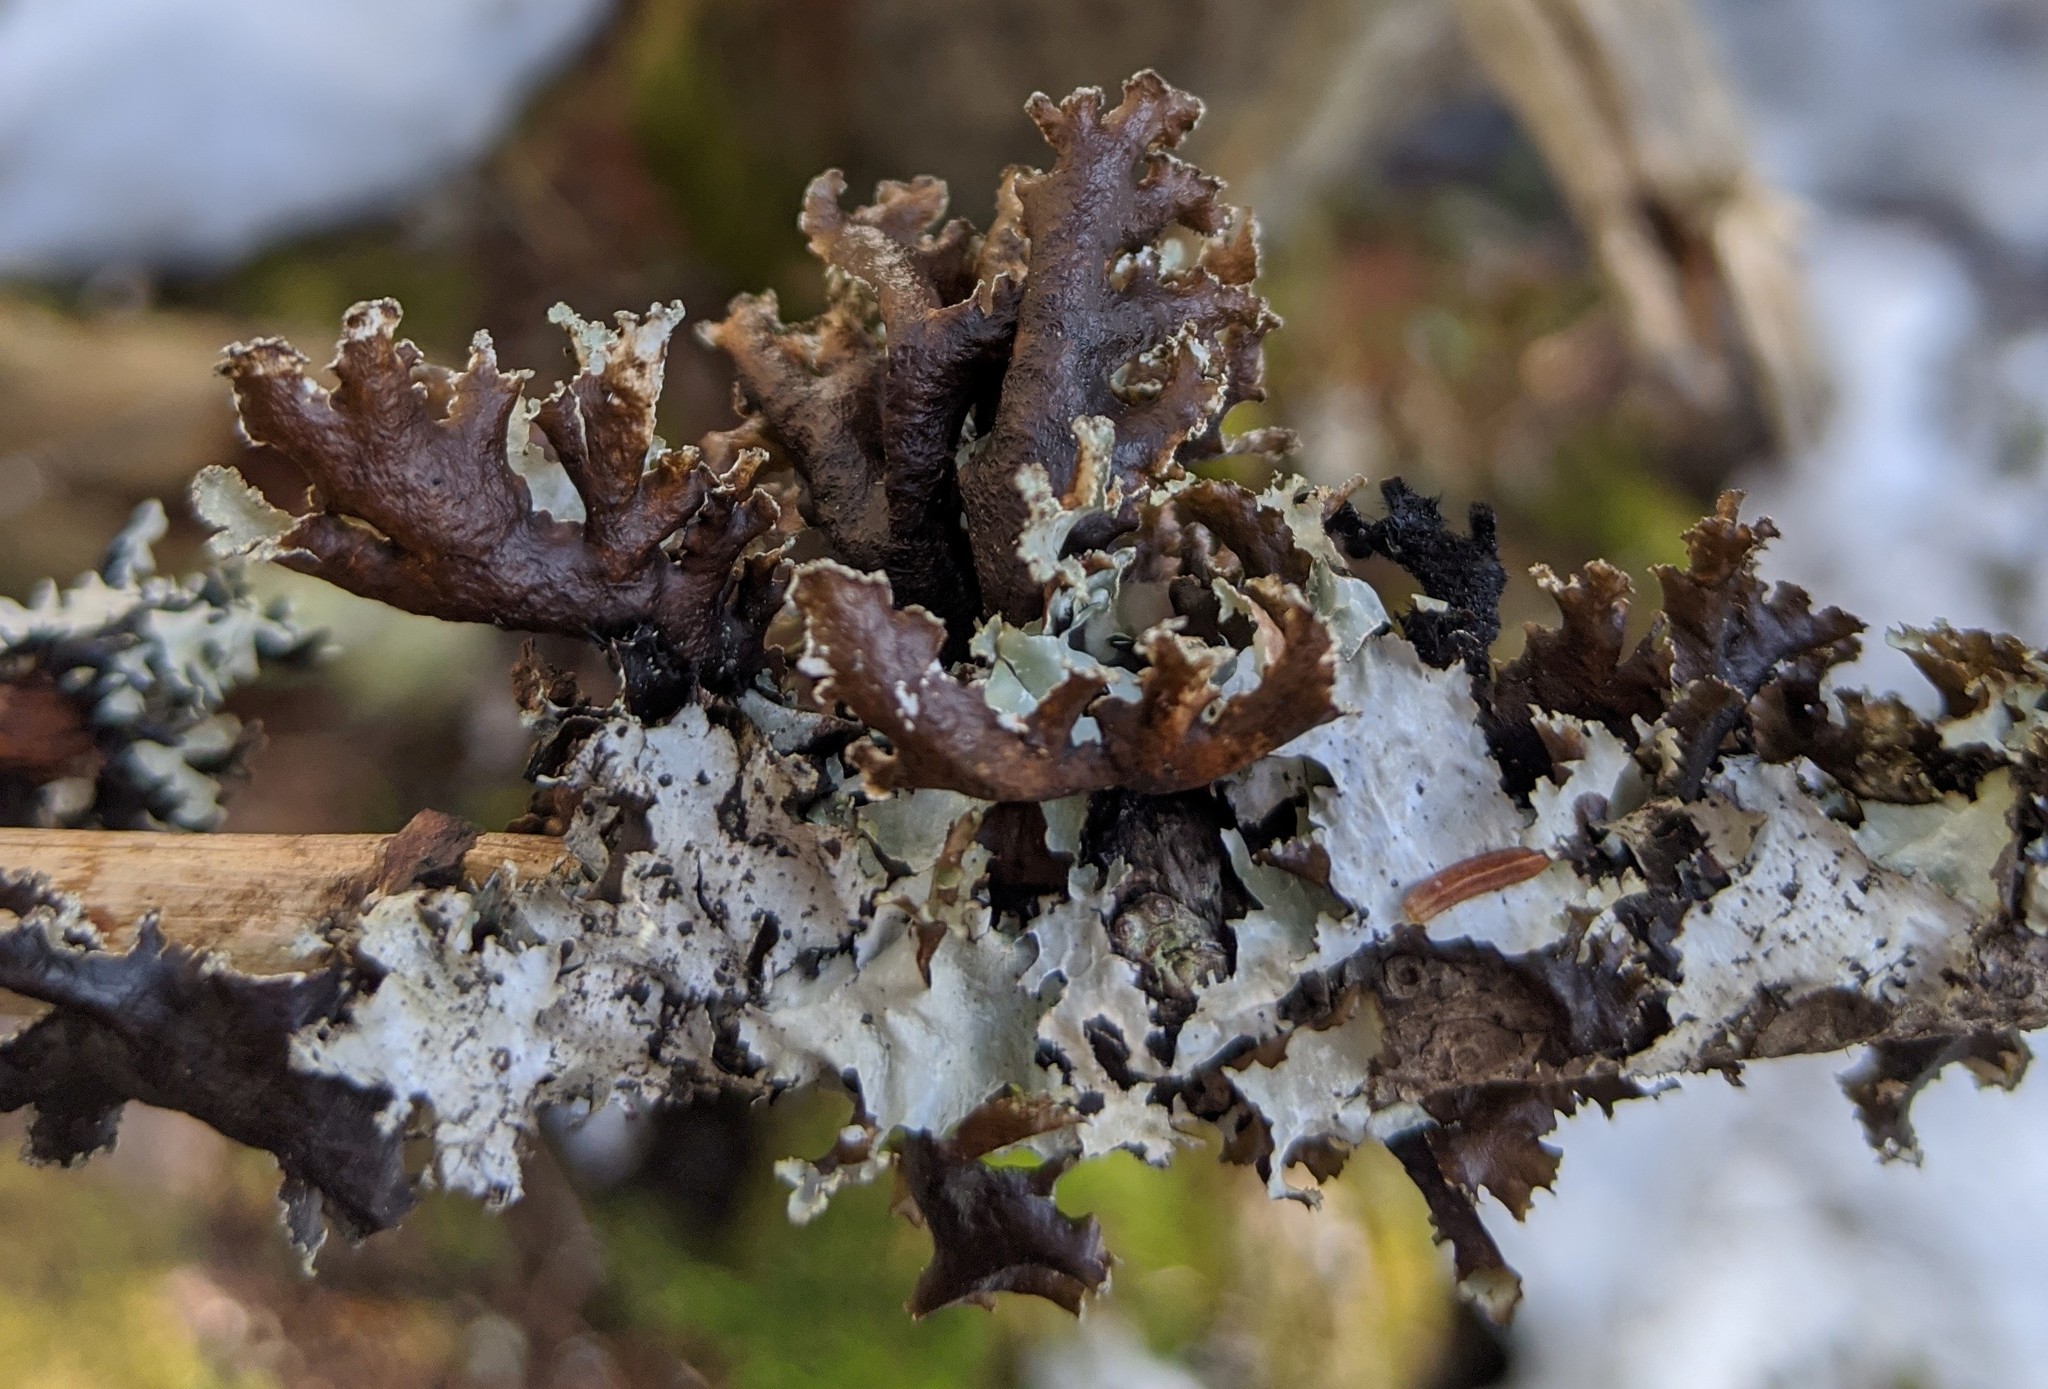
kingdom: Fungi
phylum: Ascomycota
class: Lecanoromycetes
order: Lecanorales
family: Parmeliaceae
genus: Platismatia
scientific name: Platismatia glauca
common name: Varied rag lichen
